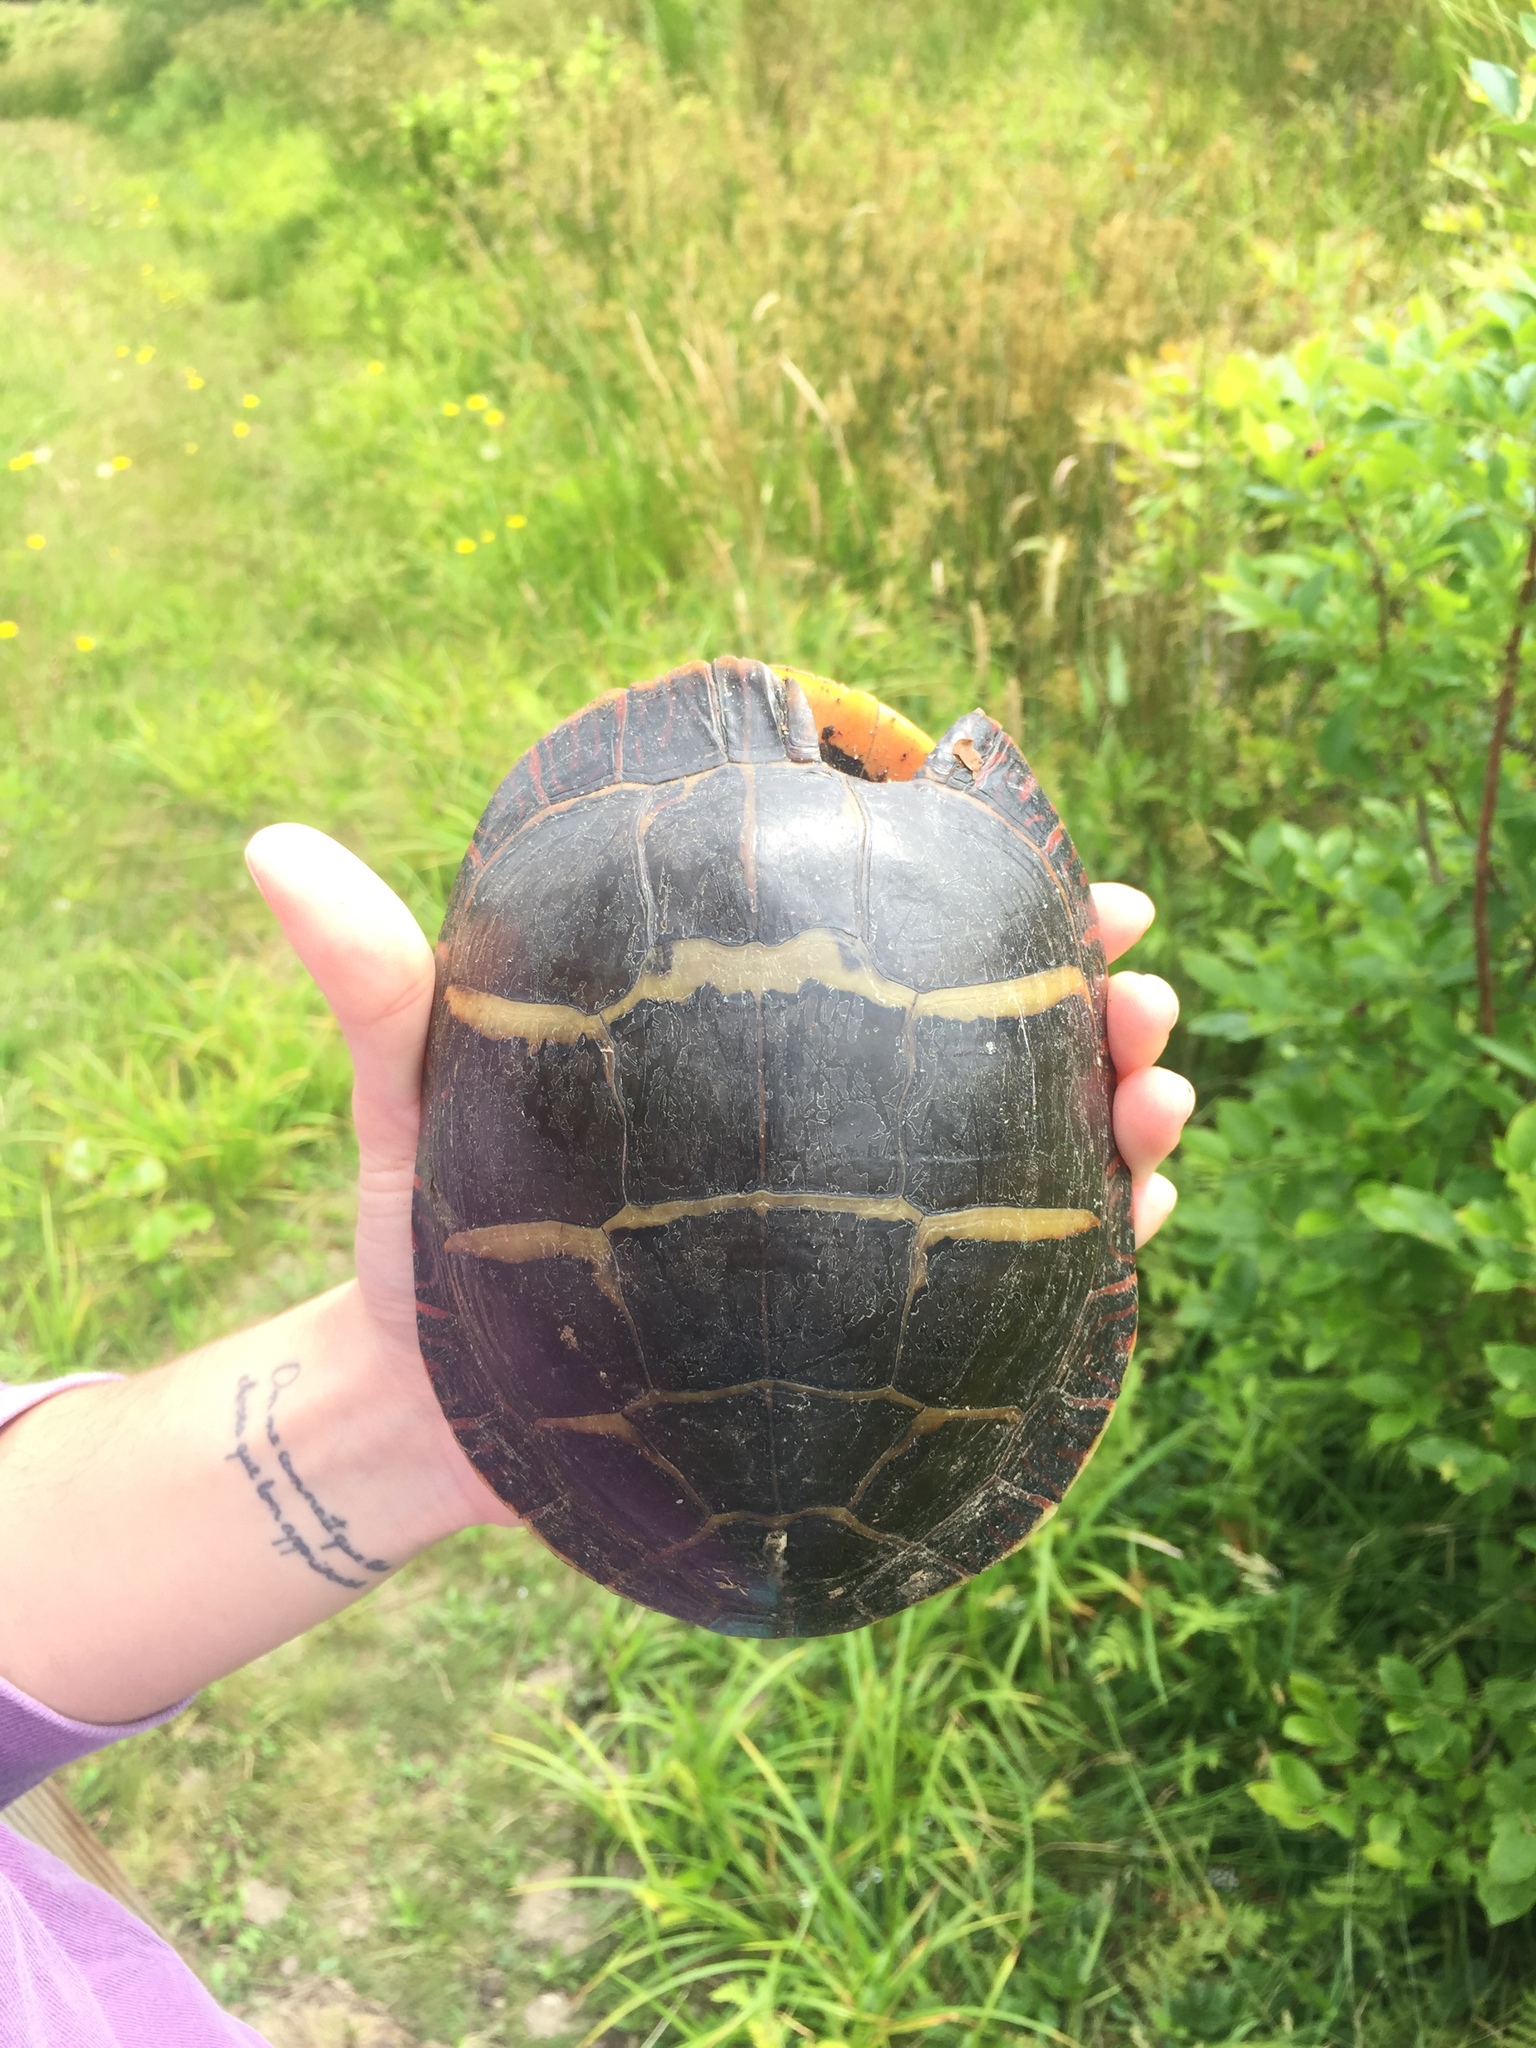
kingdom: Animalia
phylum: Chordata
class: Testudines
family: Emydidae
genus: Chrysemys
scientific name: Chrysemys picta
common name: Painted turtle
